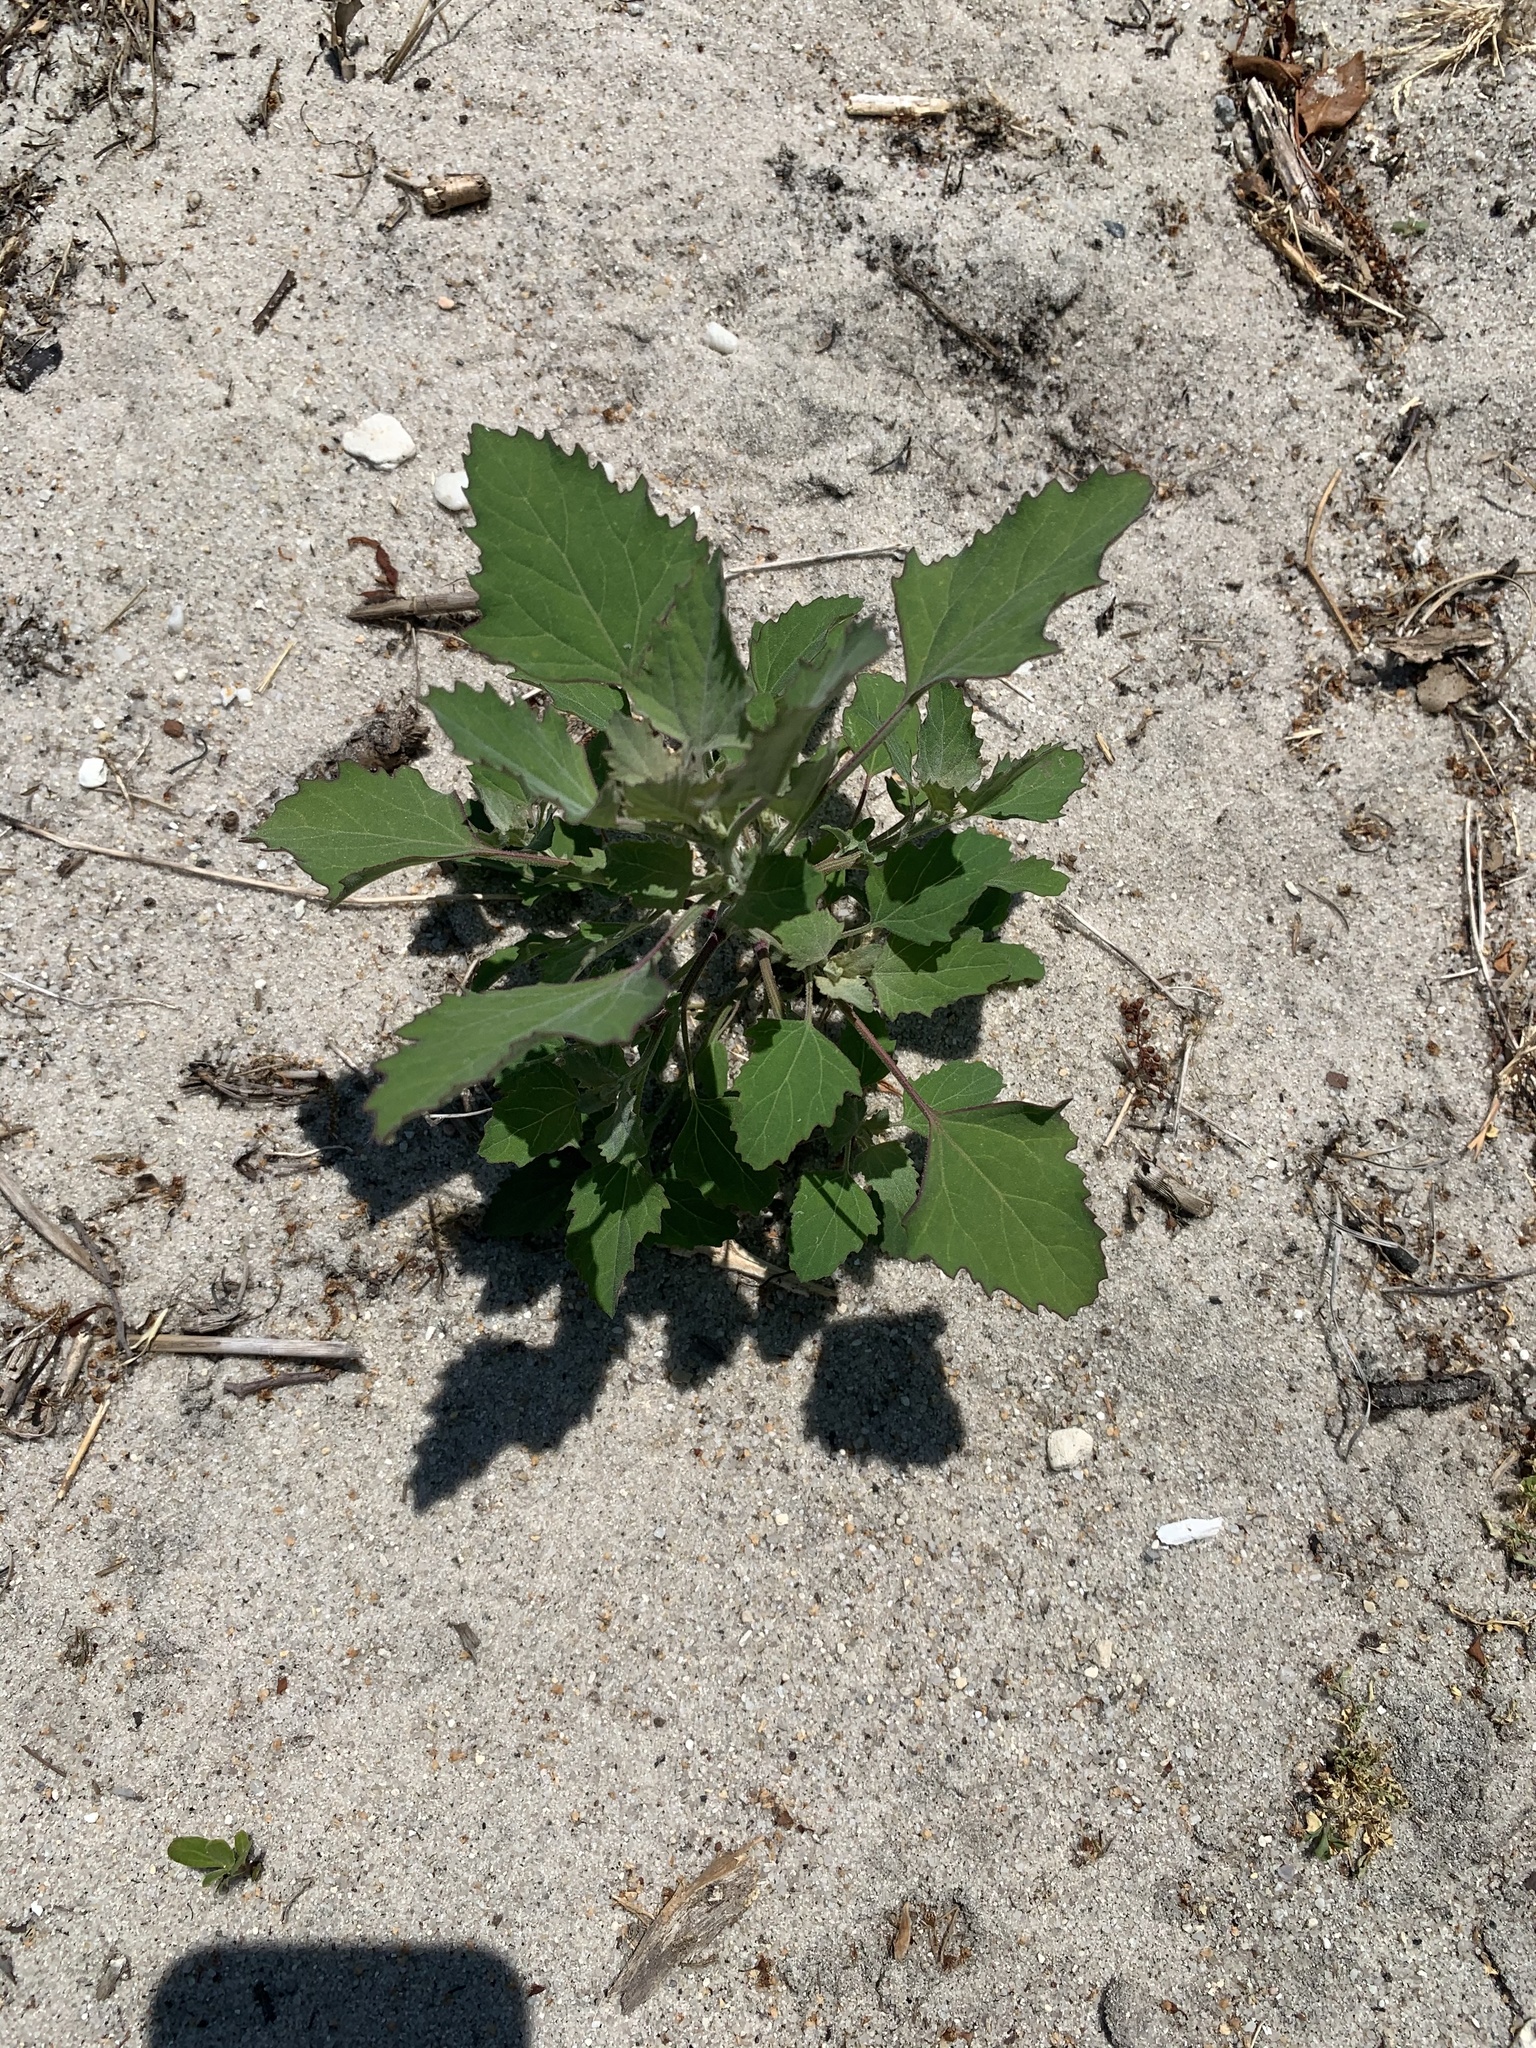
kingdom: Plantae
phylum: Tracheophyta
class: Magnoliopsida
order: Caryophyllales
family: Amaranthaceae
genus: Chenopodium
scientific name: Chenopodium album
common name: Fat-hen
